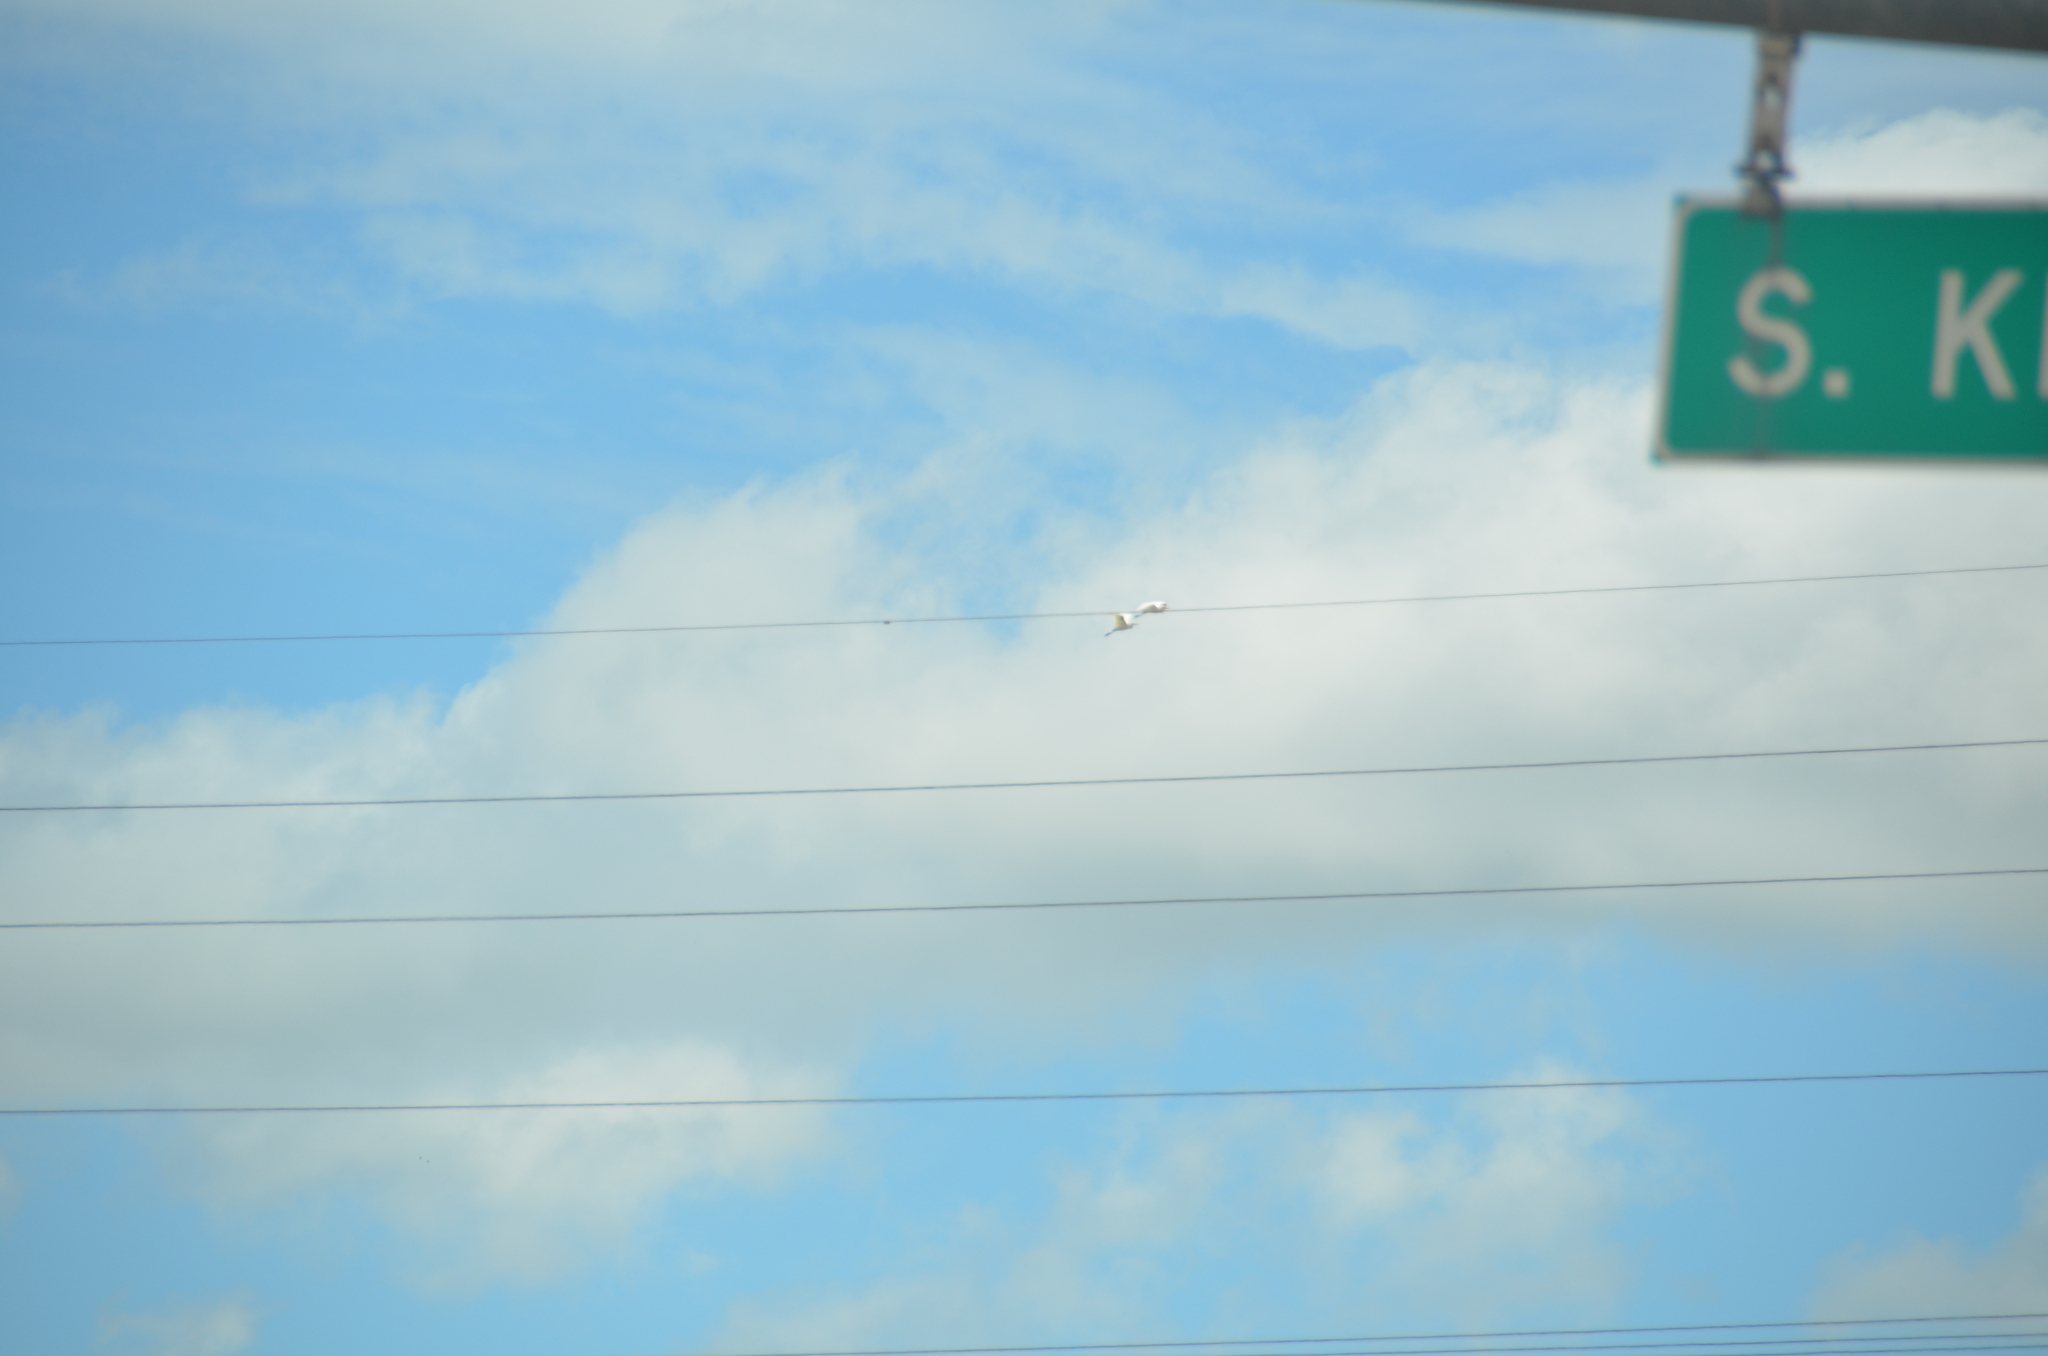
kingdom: Animalia
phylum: Chordata
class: Aves
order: Pelecaniformes
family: Ardeidae
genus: Bubulcus
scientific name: Bubulcus ibis
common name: Cattle egret
